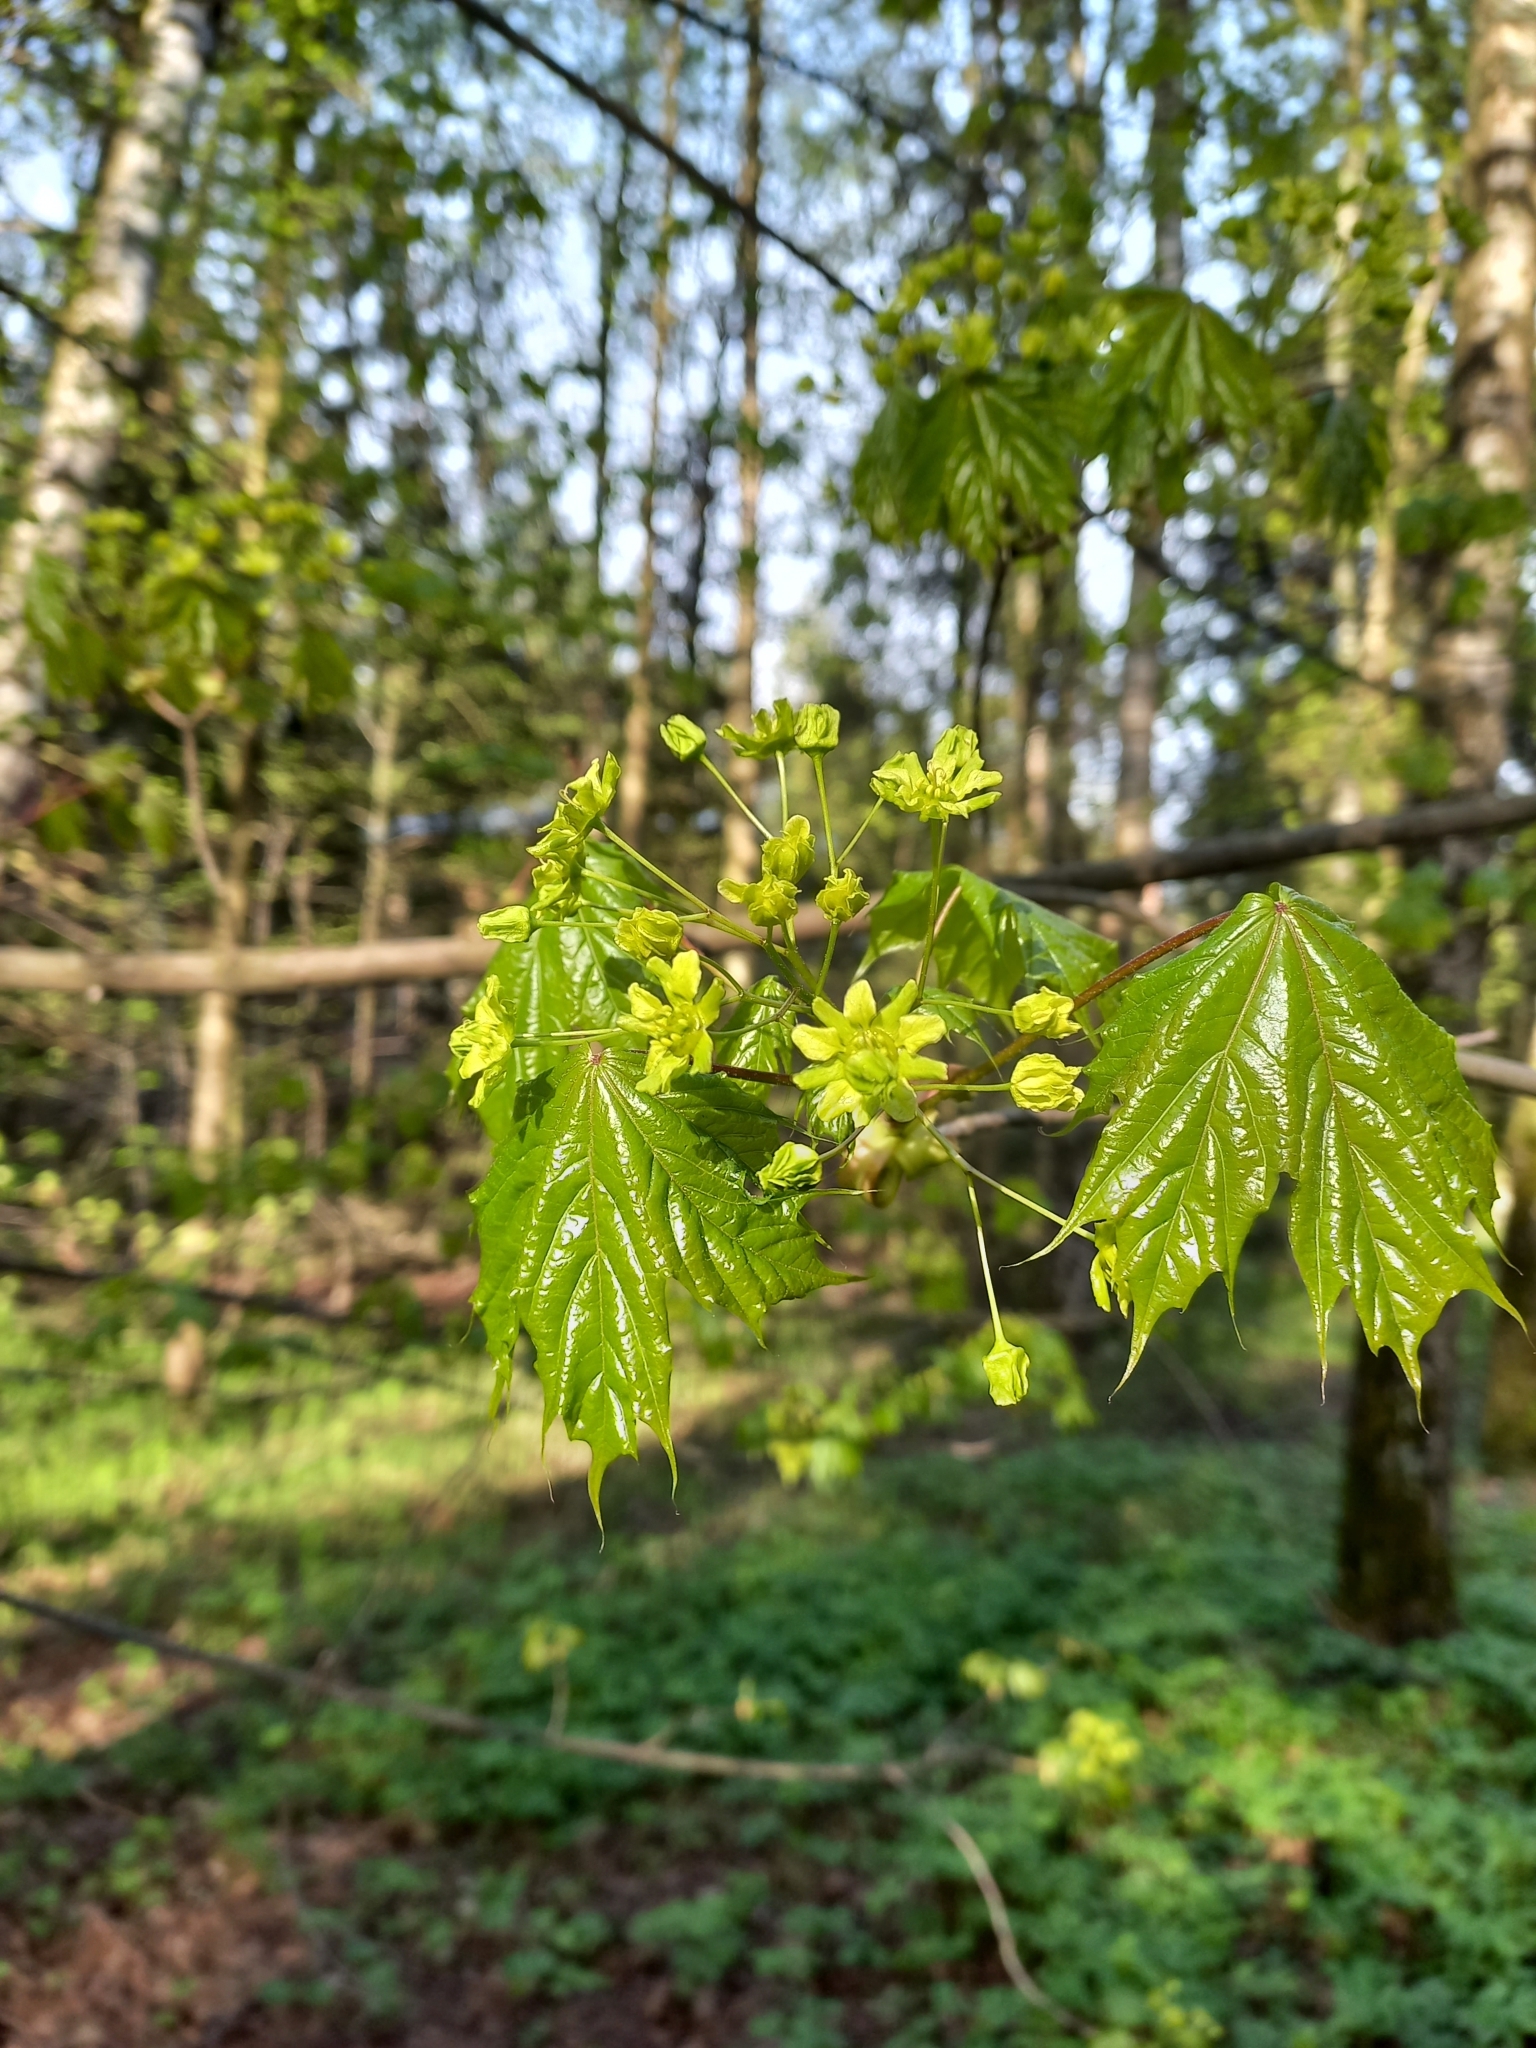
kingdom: Plantae
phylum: Tracheophyta
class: Magnoliopsida
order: Sapindales
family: Sapindaceae
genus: Acer
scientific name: Acer platanoides
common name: Norway maple
